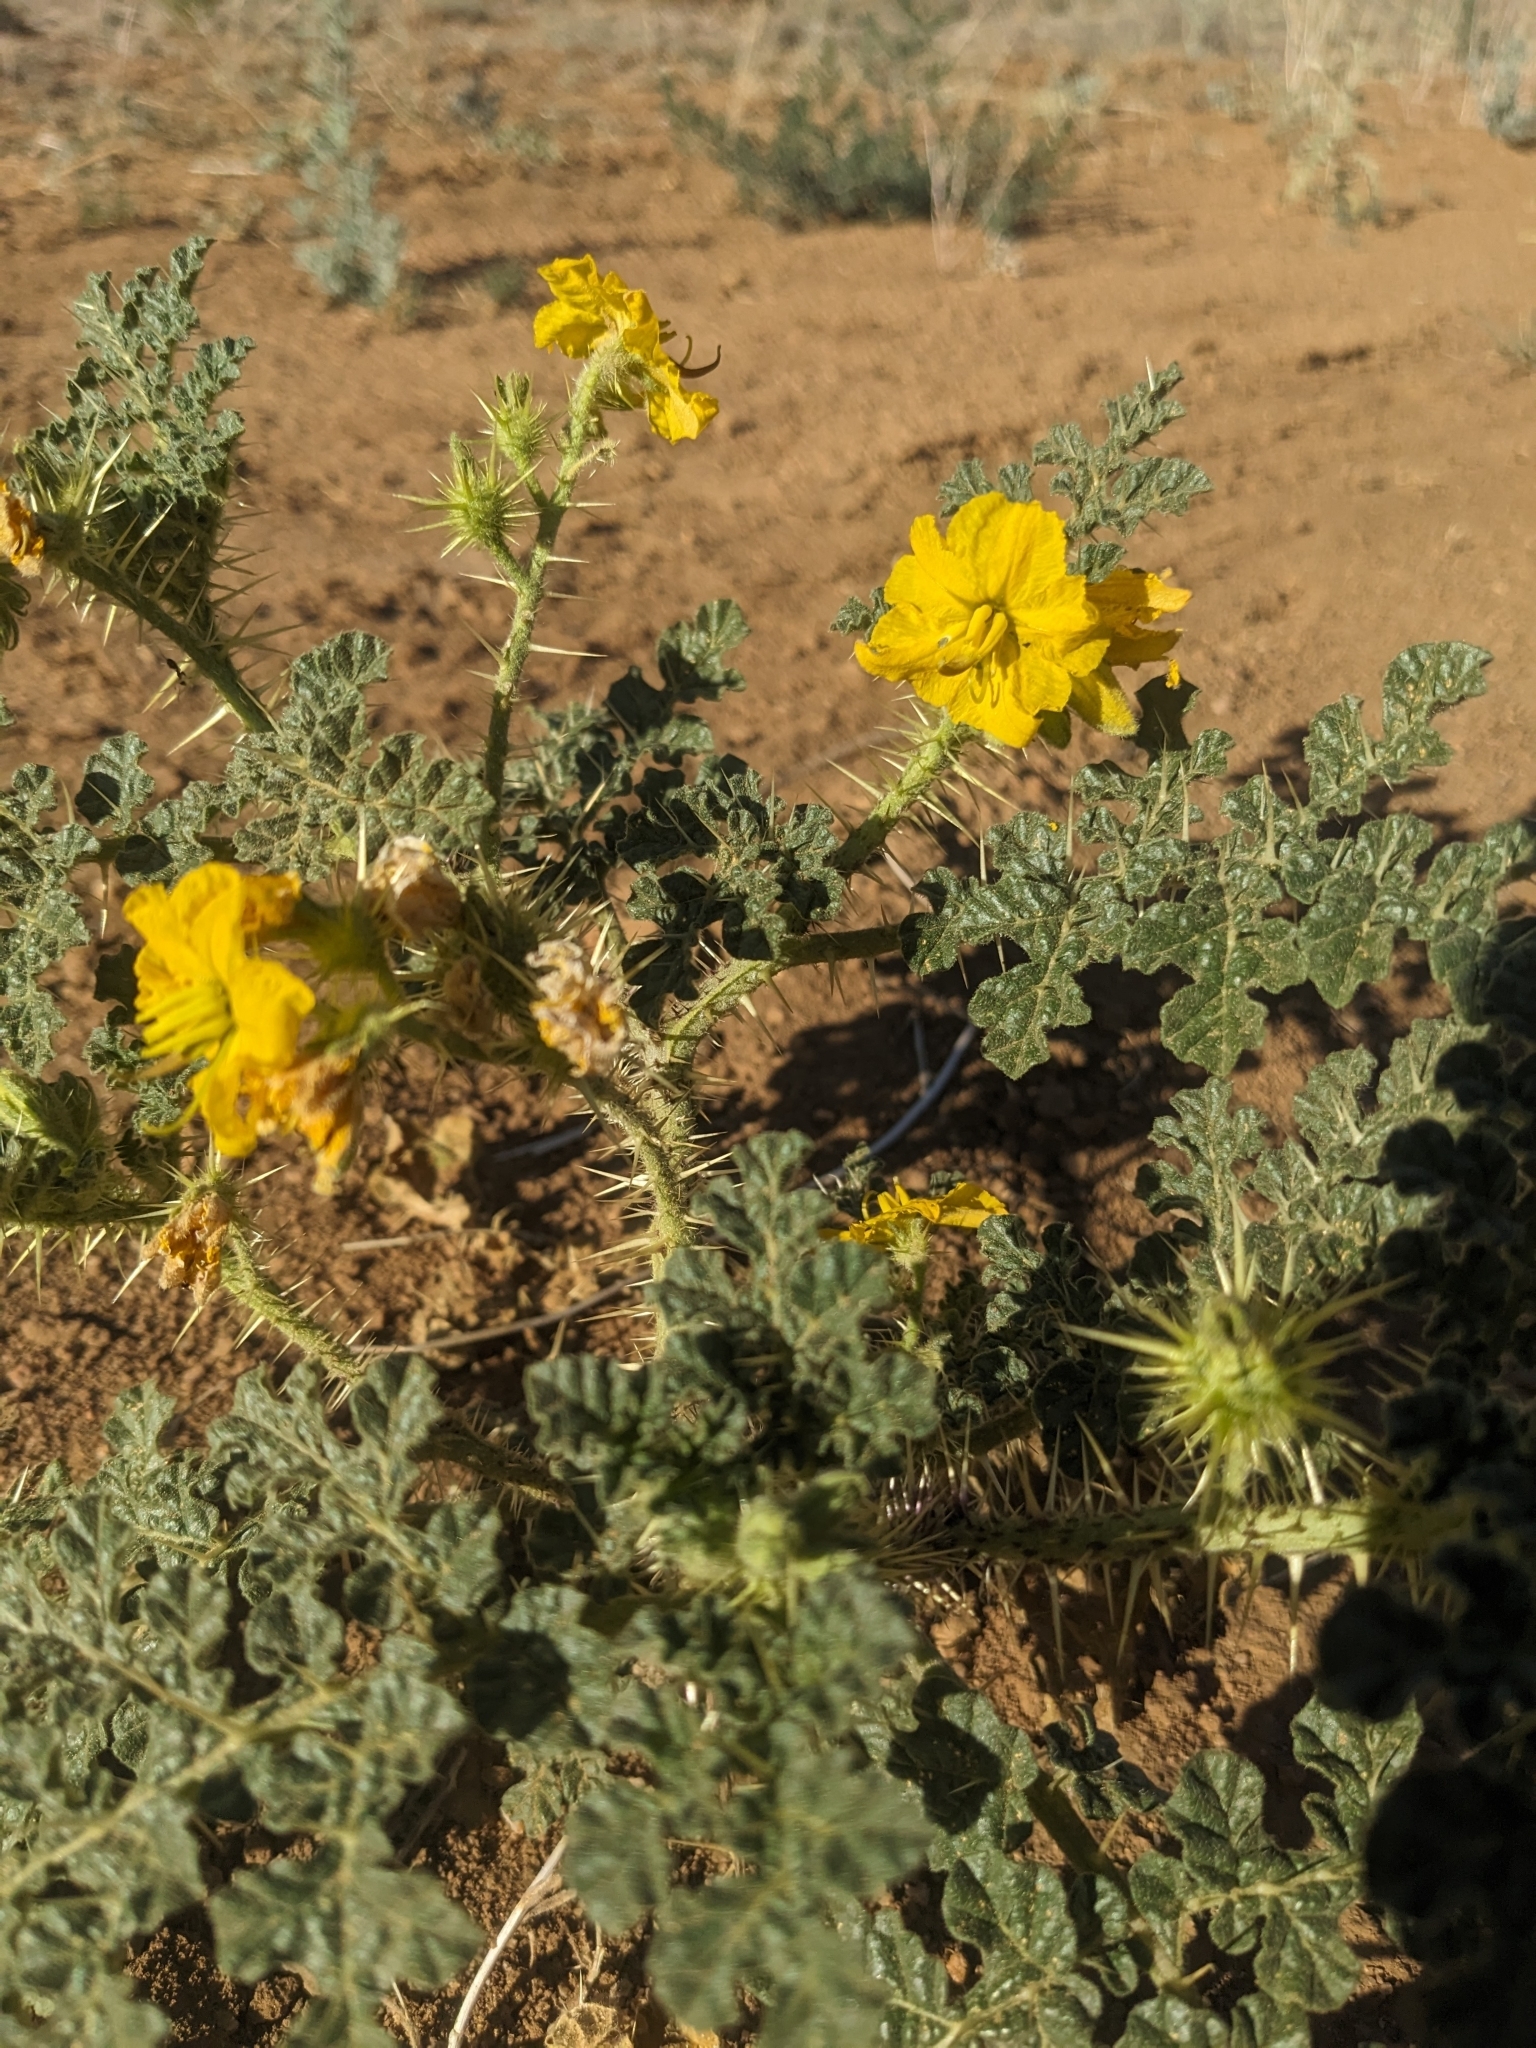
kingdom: Plantae
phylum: Tracheophyta
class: Magnoliopsida
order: Solanales
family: Solanaceae
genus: Solanum
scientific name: Solanum angustifolium
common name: Buffalobur nightshade
